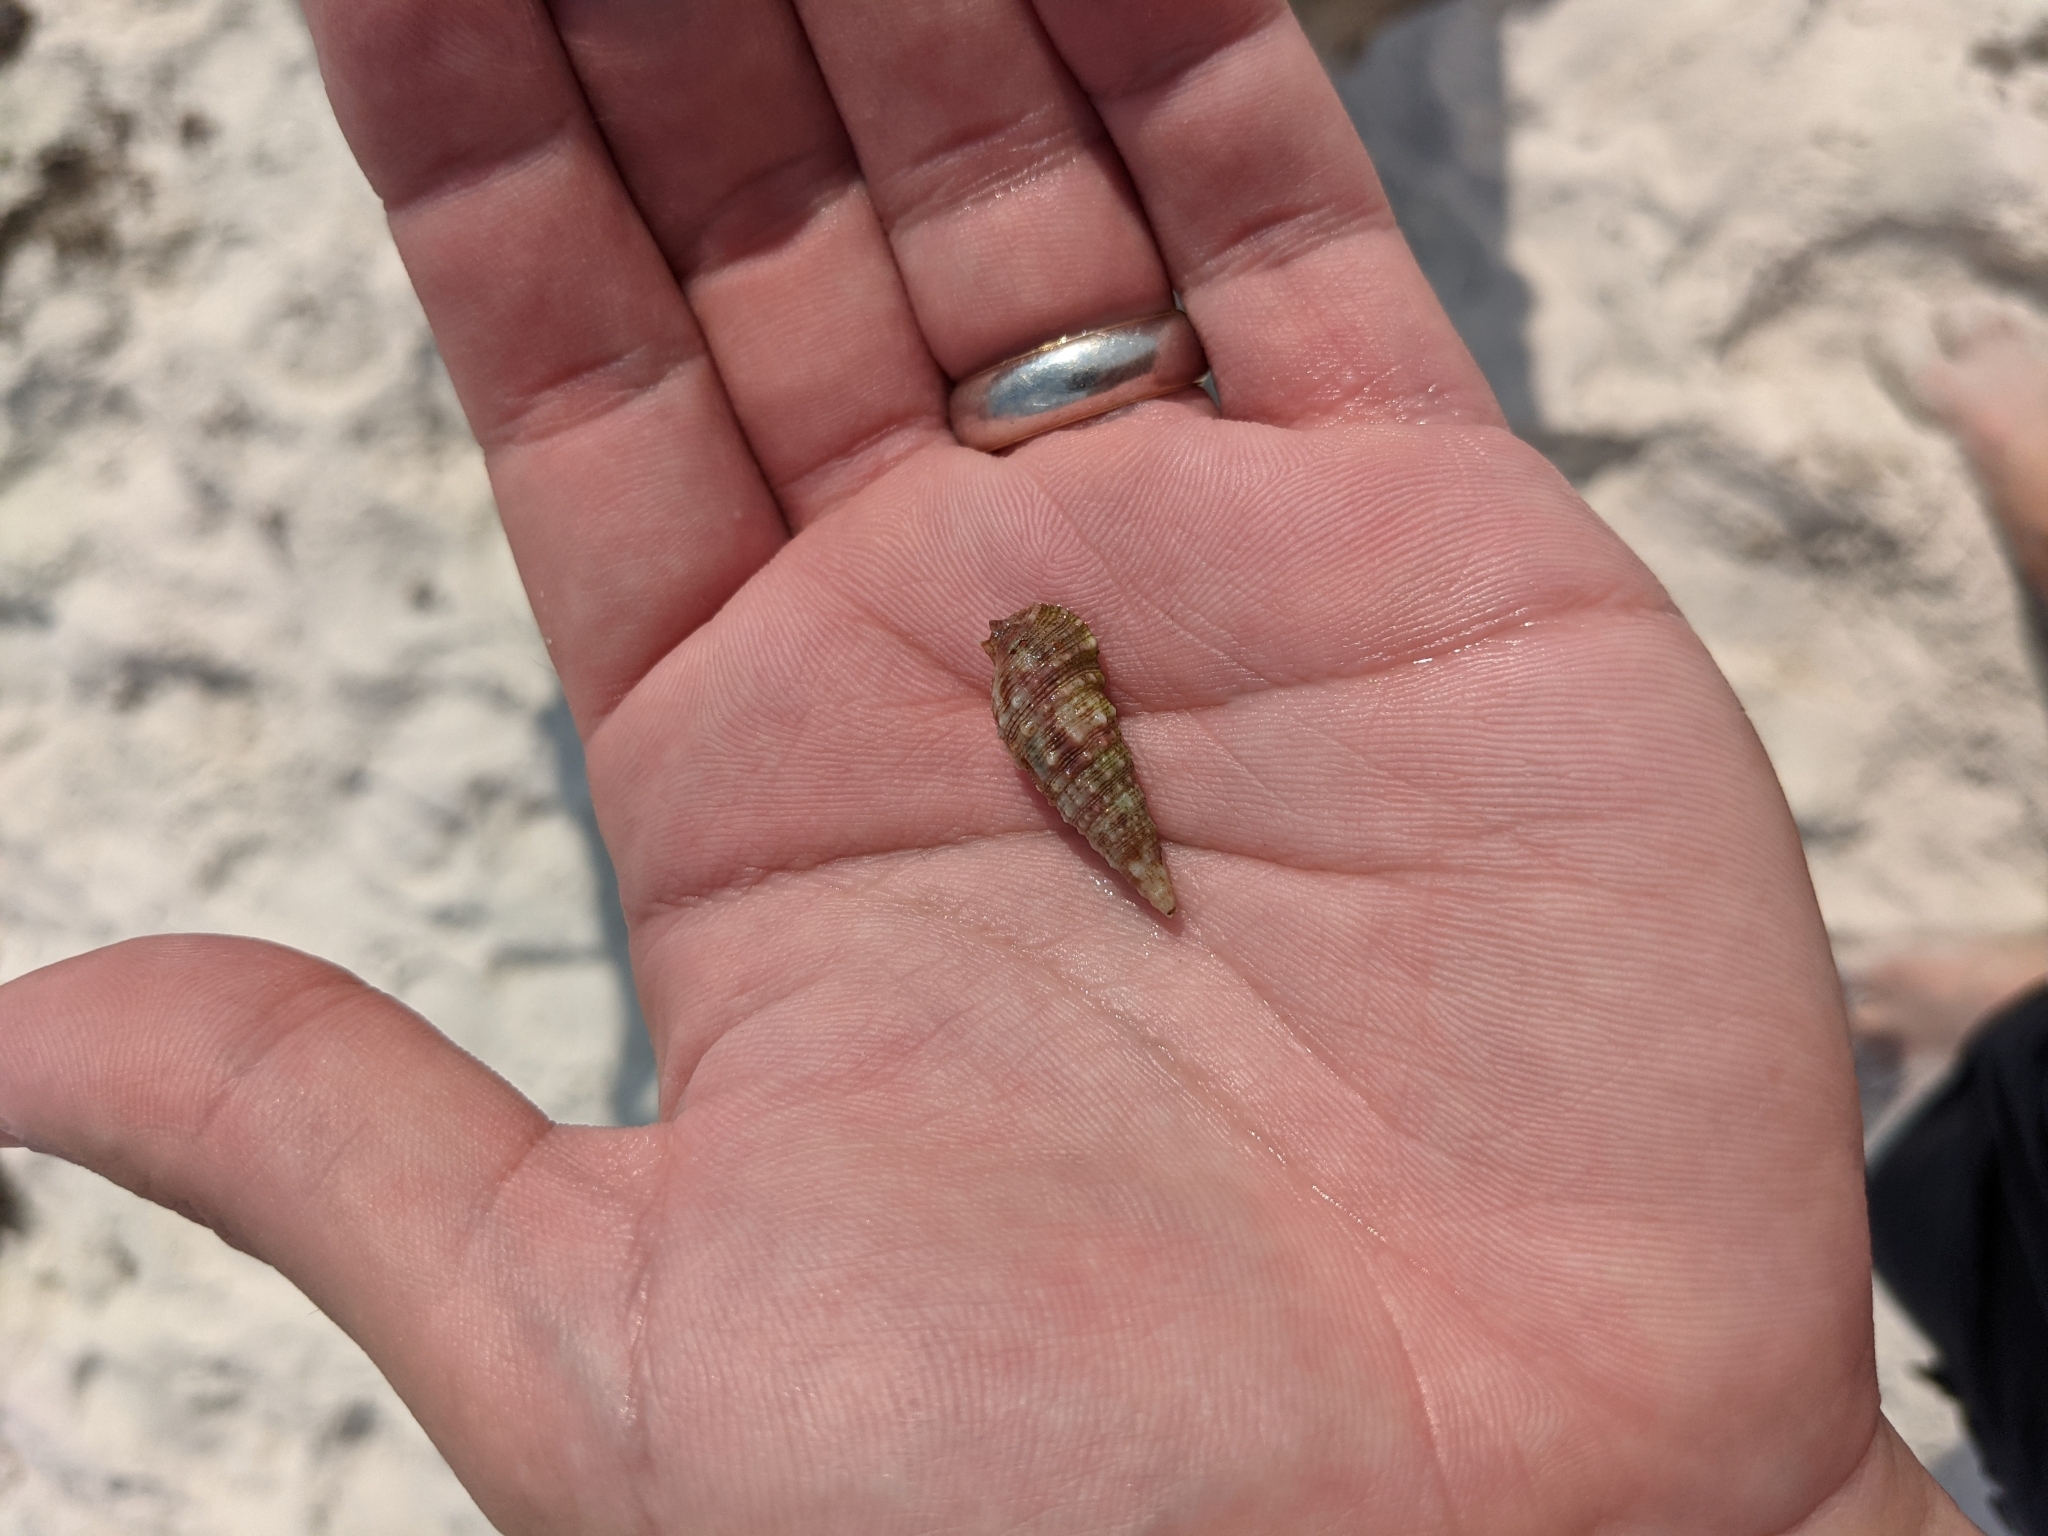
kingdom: Animalia
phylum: Mollusca
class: Gastropoda
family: Cerithiidae
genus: Cerithium
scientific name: Cerithium atratum
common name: Dark cerith
